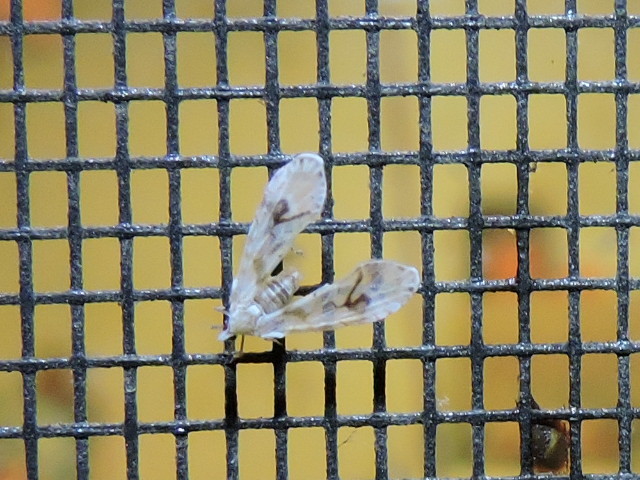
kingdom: Animalia
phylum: Arthropoda
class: Insecta
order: Hemiptera
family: Derbidae
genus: Anotia
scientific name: Anotia robertsonii
